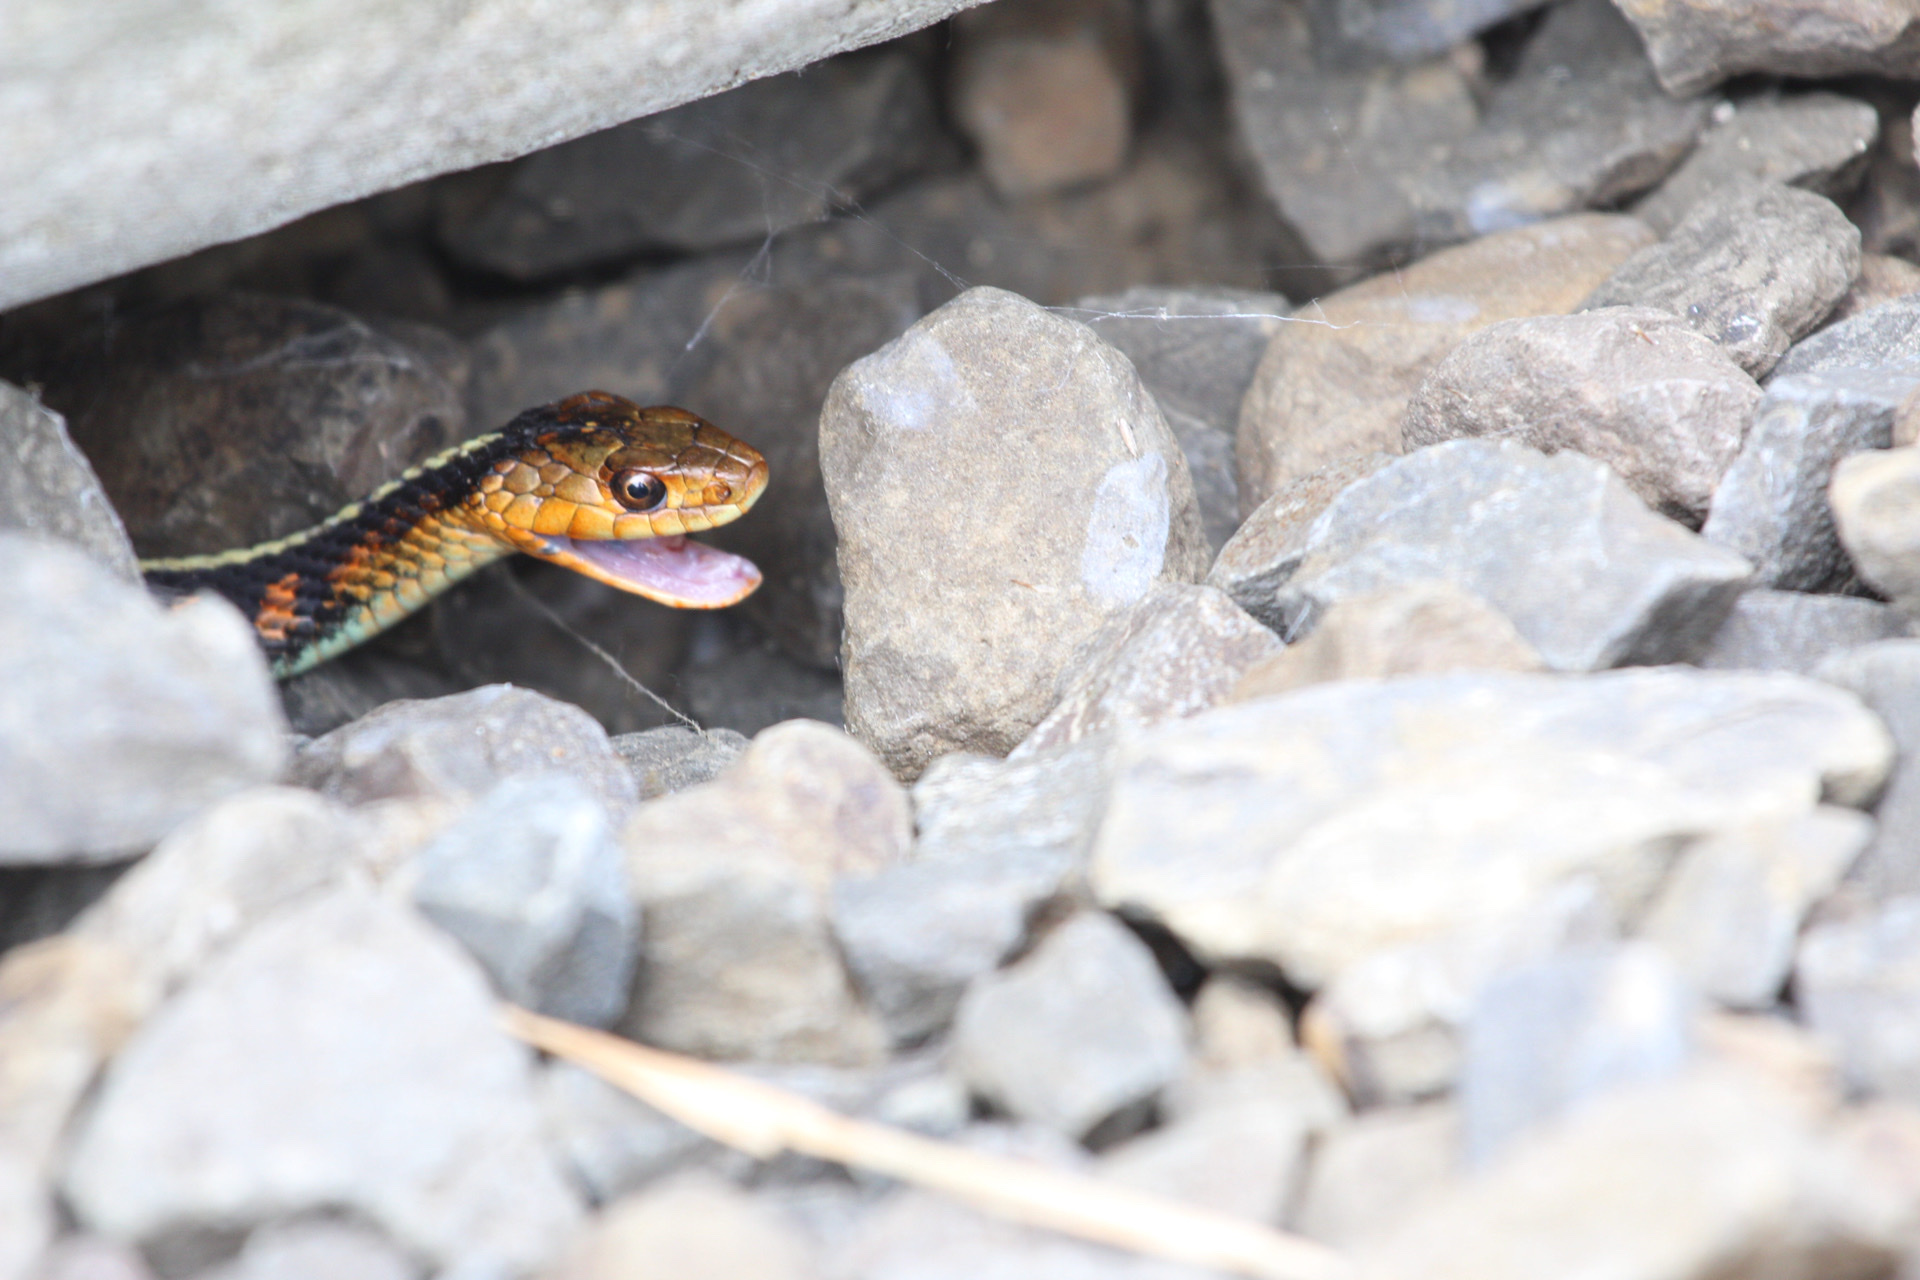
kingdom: Animalia
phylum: Chordata
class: Squamata
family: Colubridae
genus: Thamnophis
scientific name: Thamnophis sirtalis
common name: Common garter snake
